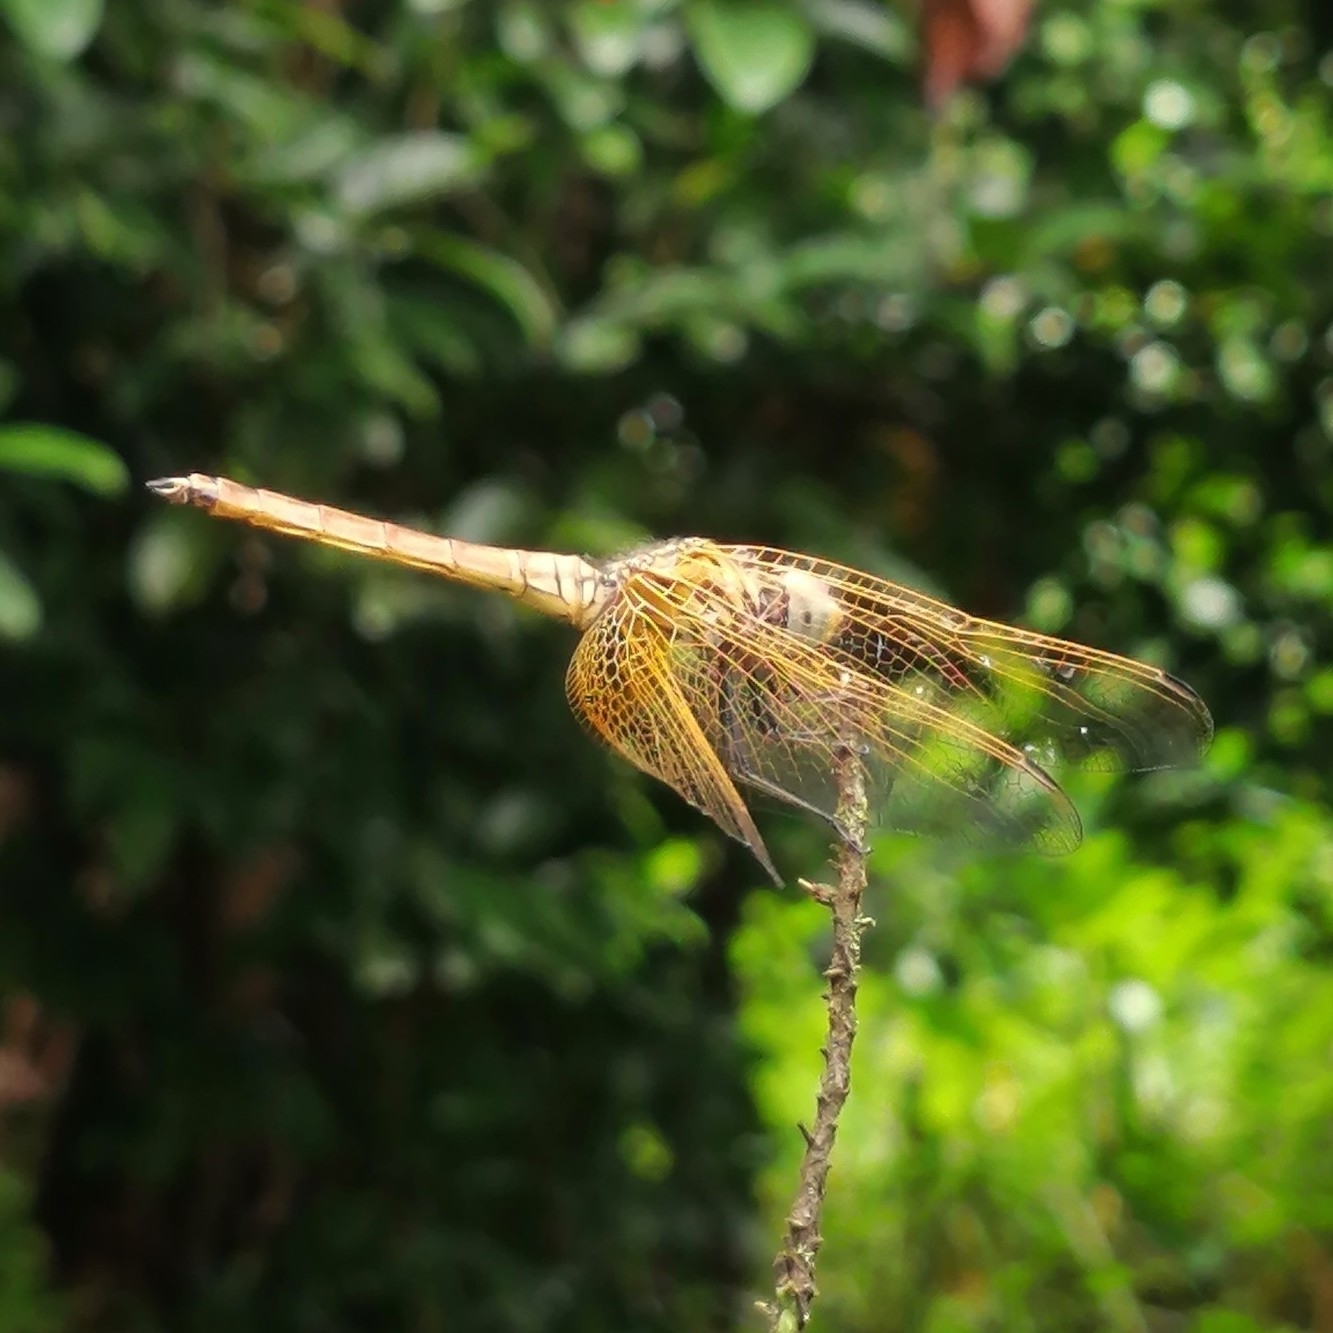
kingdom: Animalia
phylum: Arthropoda
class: Insecta
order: Odonata
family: Libellulidae
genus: Trithemis
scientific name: Trithemis aurora
